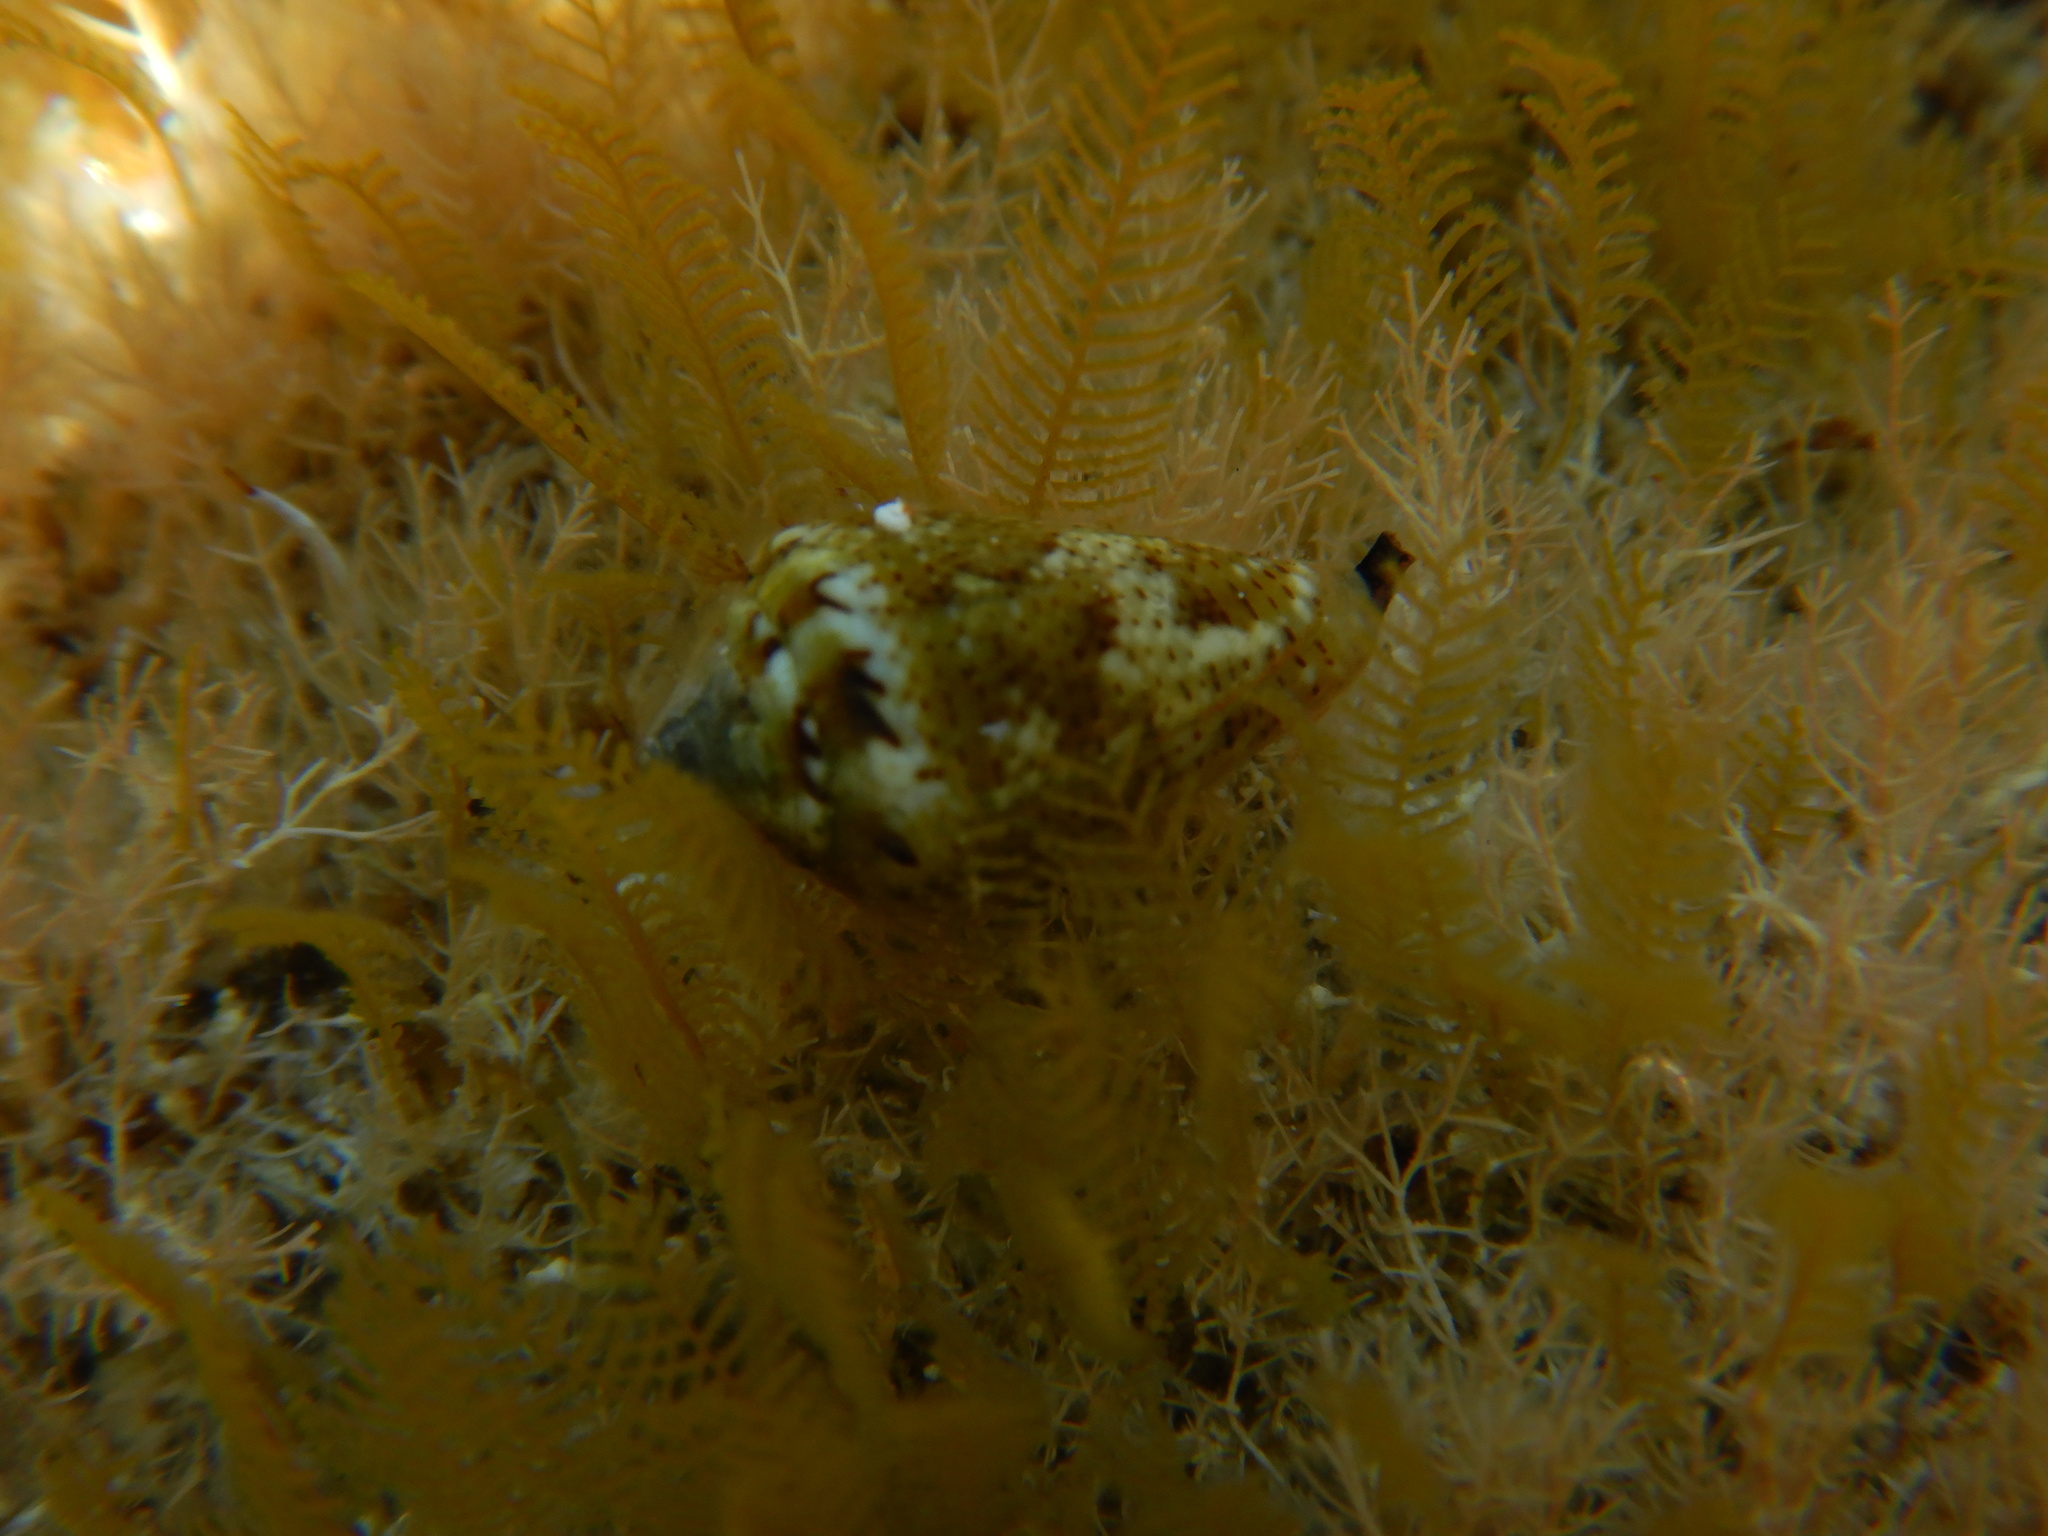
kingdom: Animalia
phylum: Mollusca
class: Gastropoda
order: Neogastropoda
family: Conidae
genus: Conus
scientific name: Conus ventricosus
